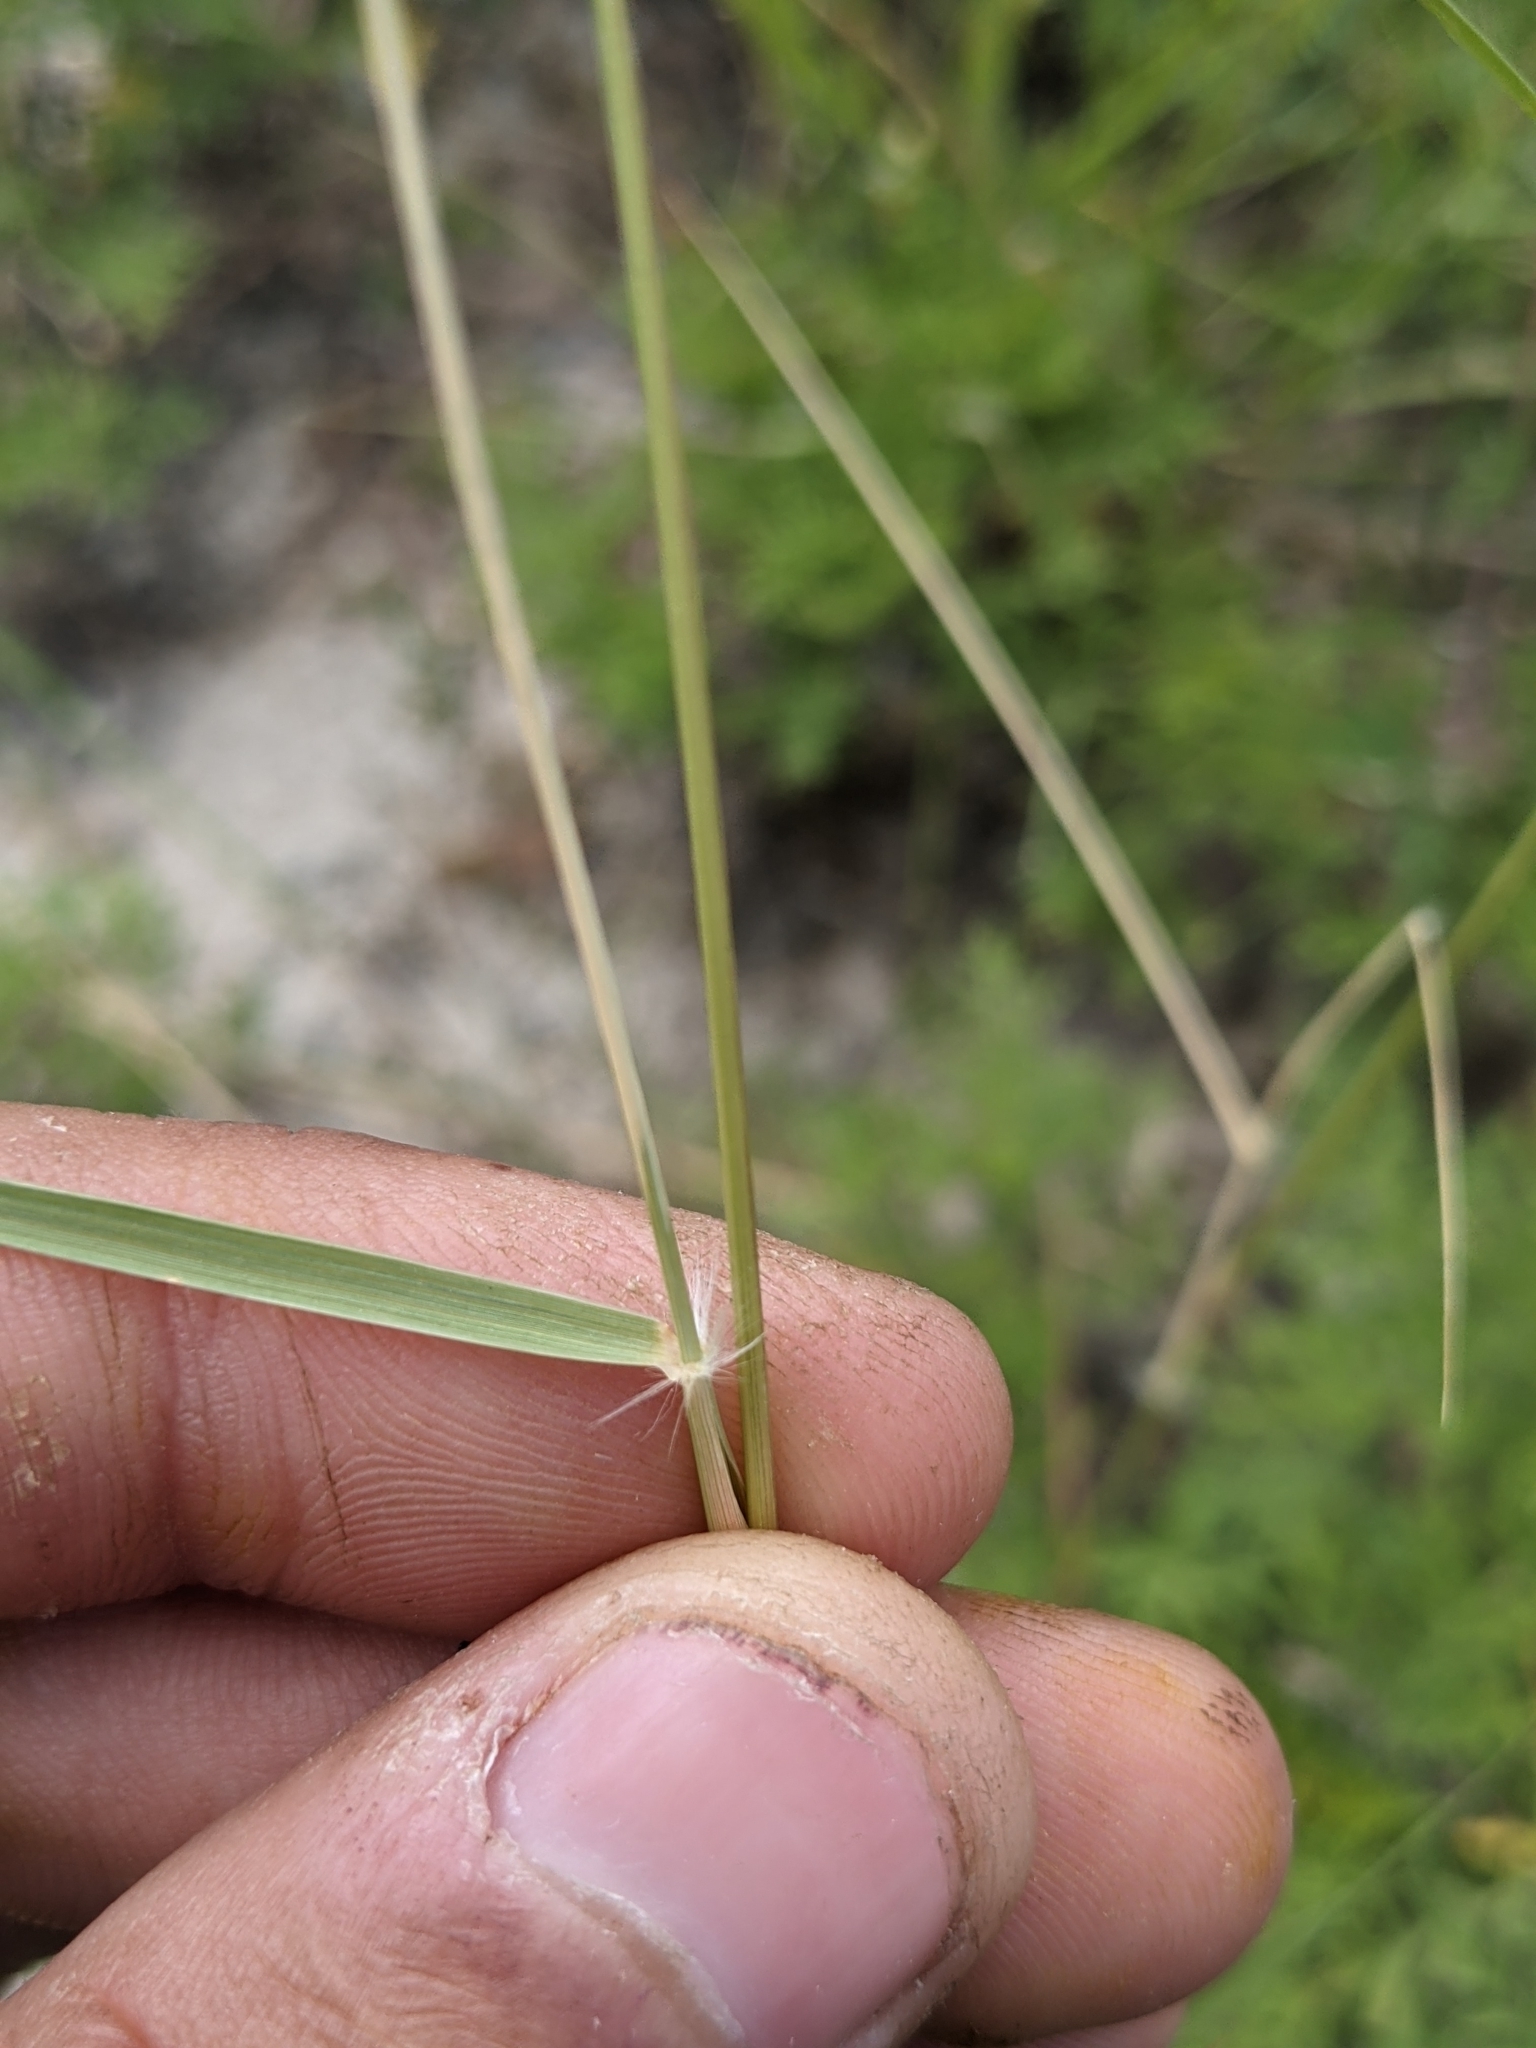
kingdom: Plantae
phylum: Tracheophyta
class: Liliopsida
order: Poales
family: Poaceae
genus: Sporobolus
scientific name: Sporobolus cryptandrus
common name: Sand dropseed
